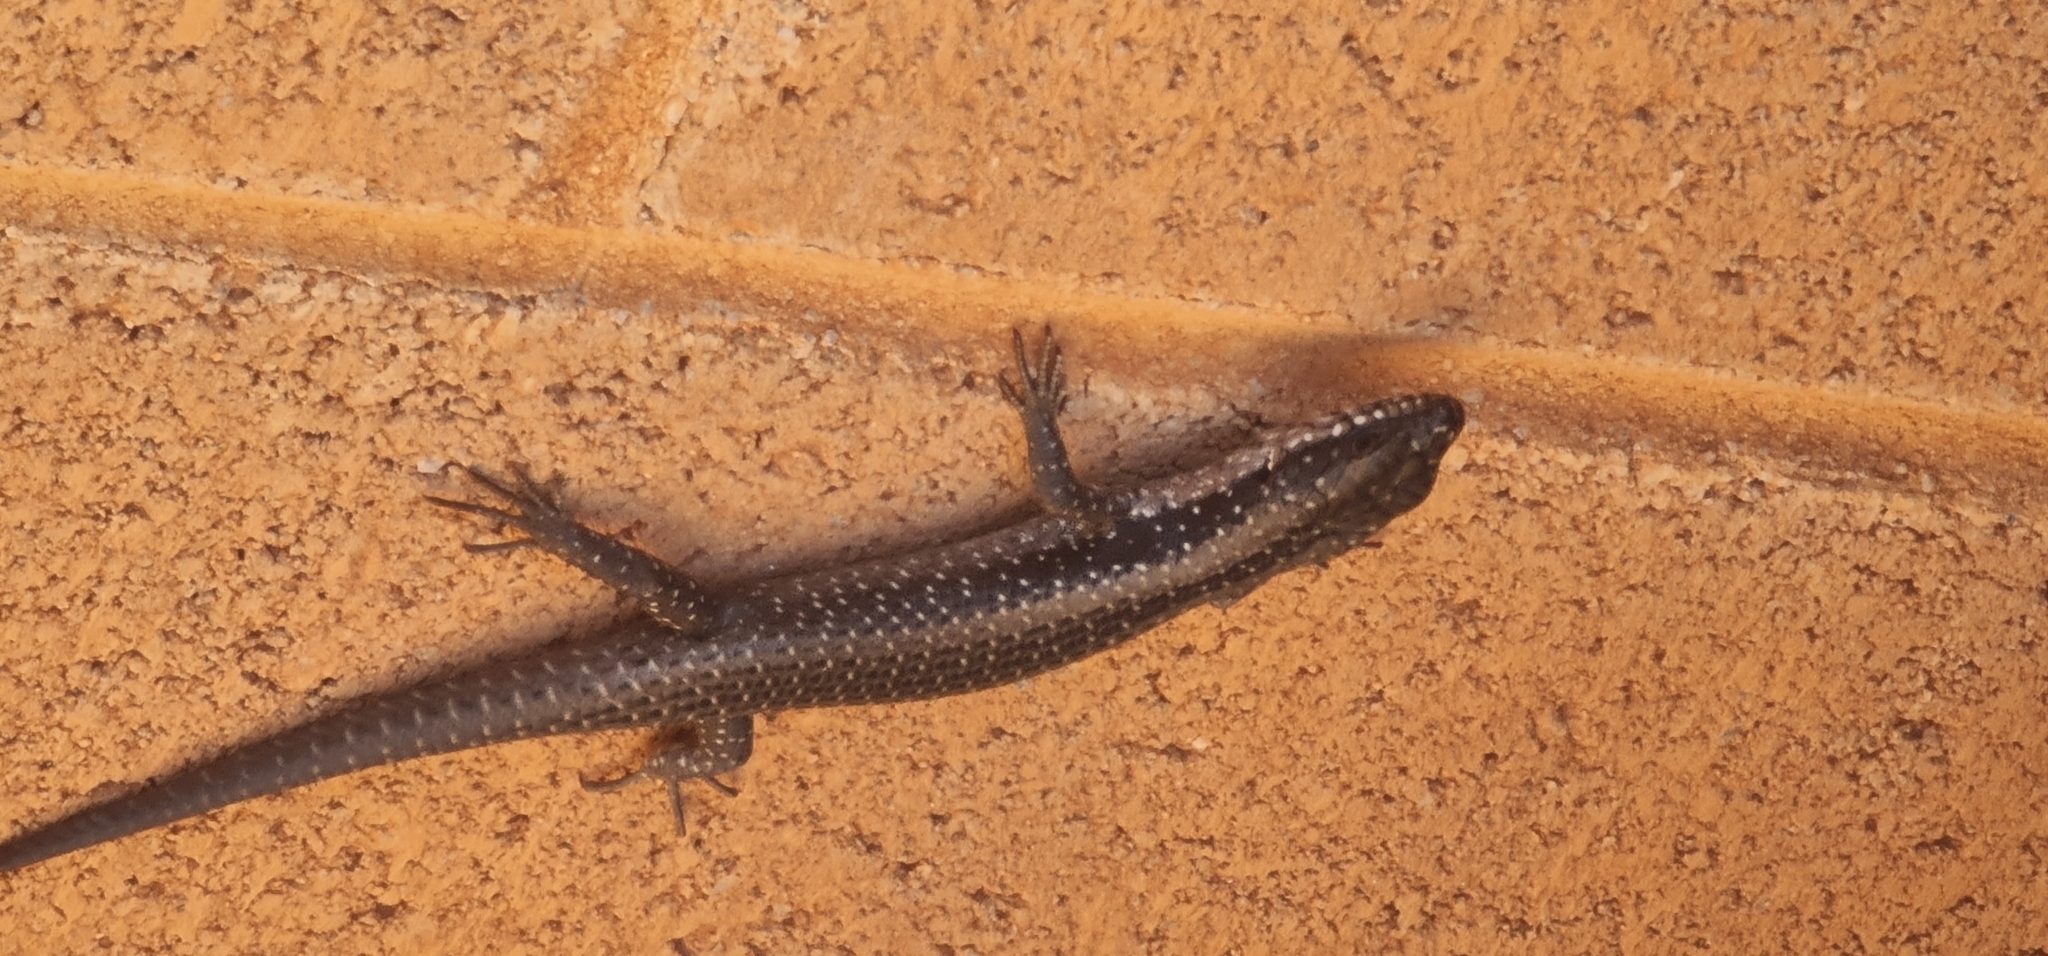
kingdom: Animalia
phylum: Chordata
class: Squamata
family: Scincidae
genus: Egernia
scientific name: Egernia striolata
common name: Tree skink
